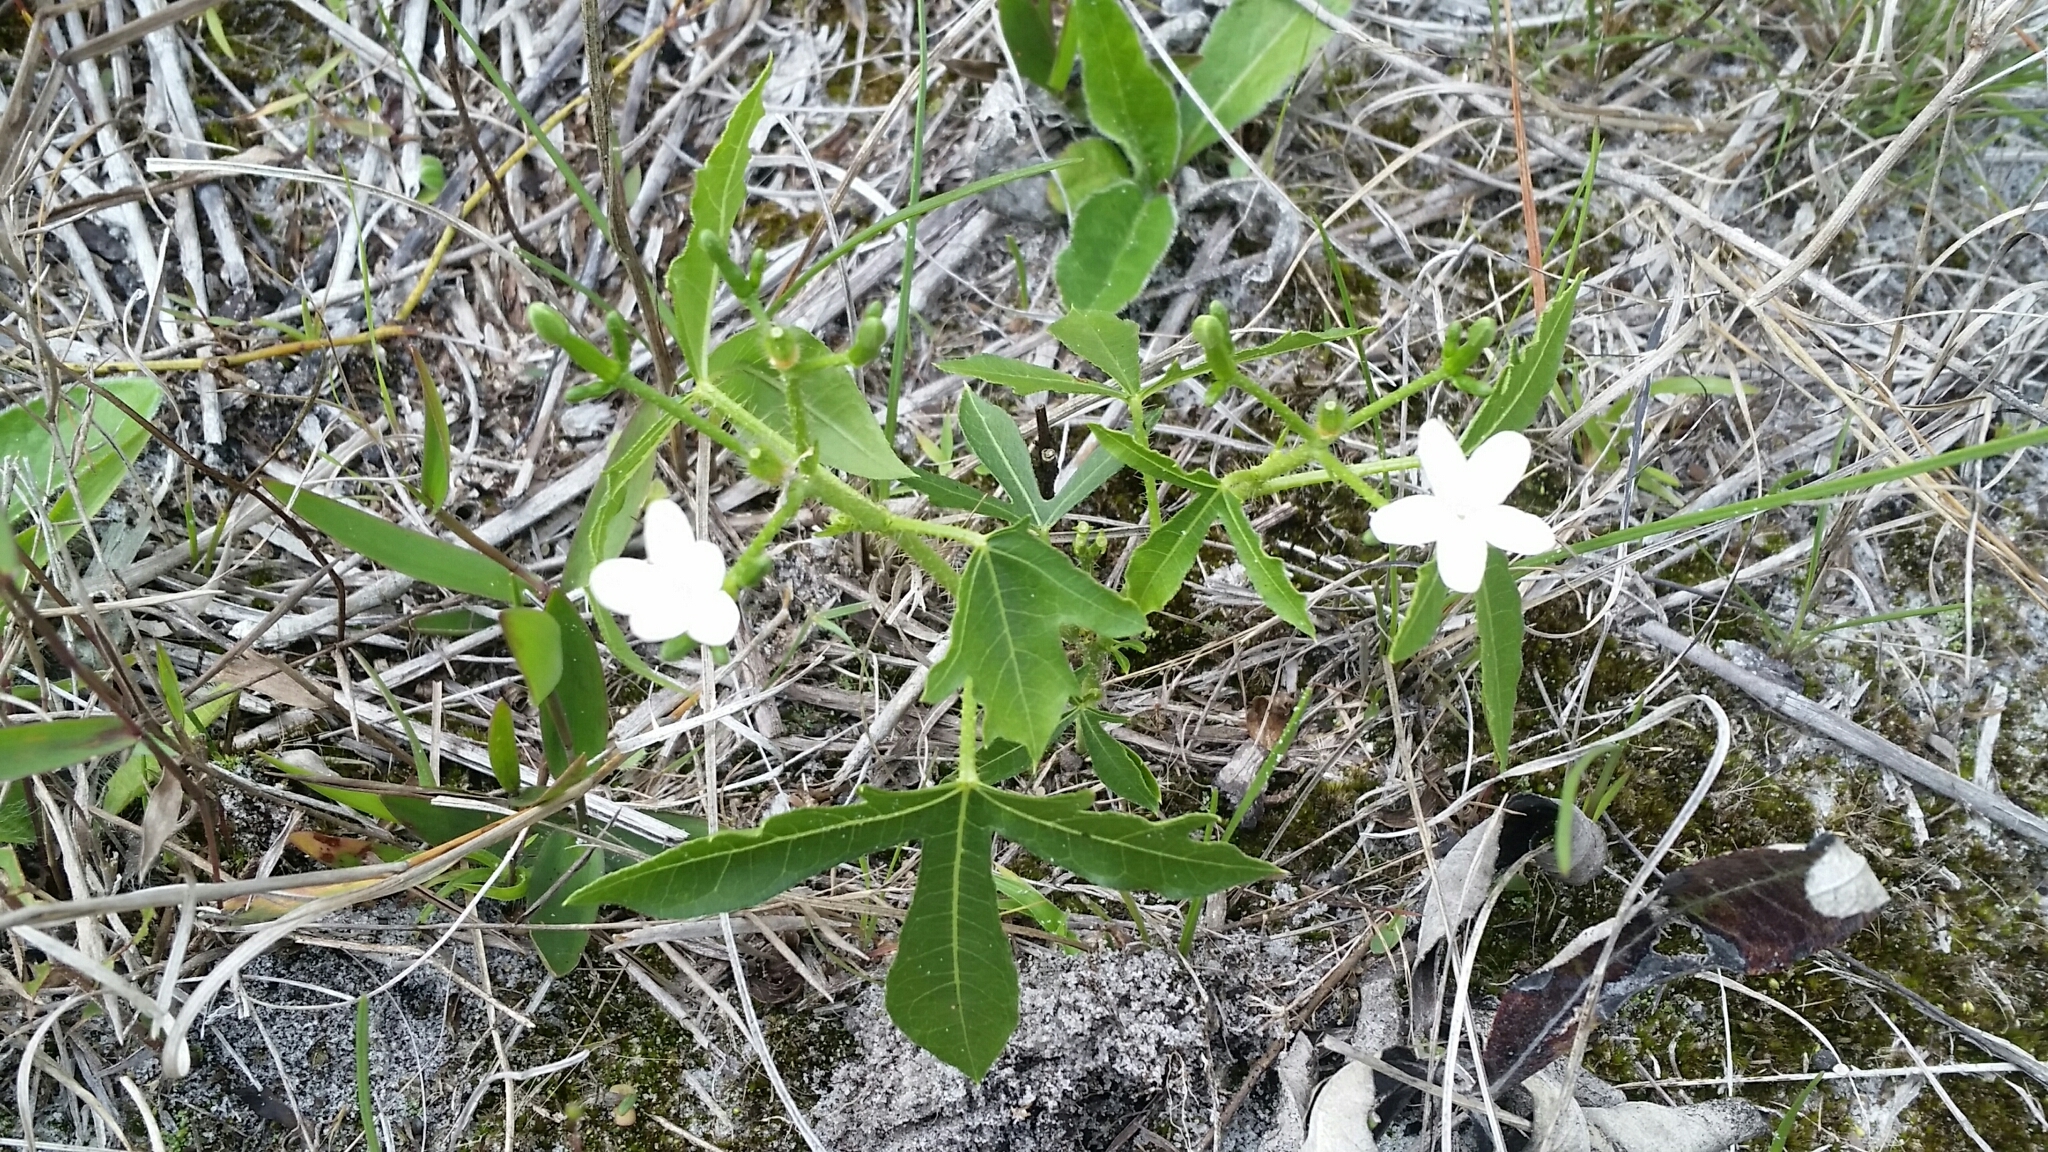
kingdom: Plantae
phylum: Tracheophyta
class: Magnoliopsida
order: Malpighiales
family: Euphorbiaceae
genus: Cnidoscolus
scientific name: Cnidoscolus stimulosus
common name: Bull-nettle
